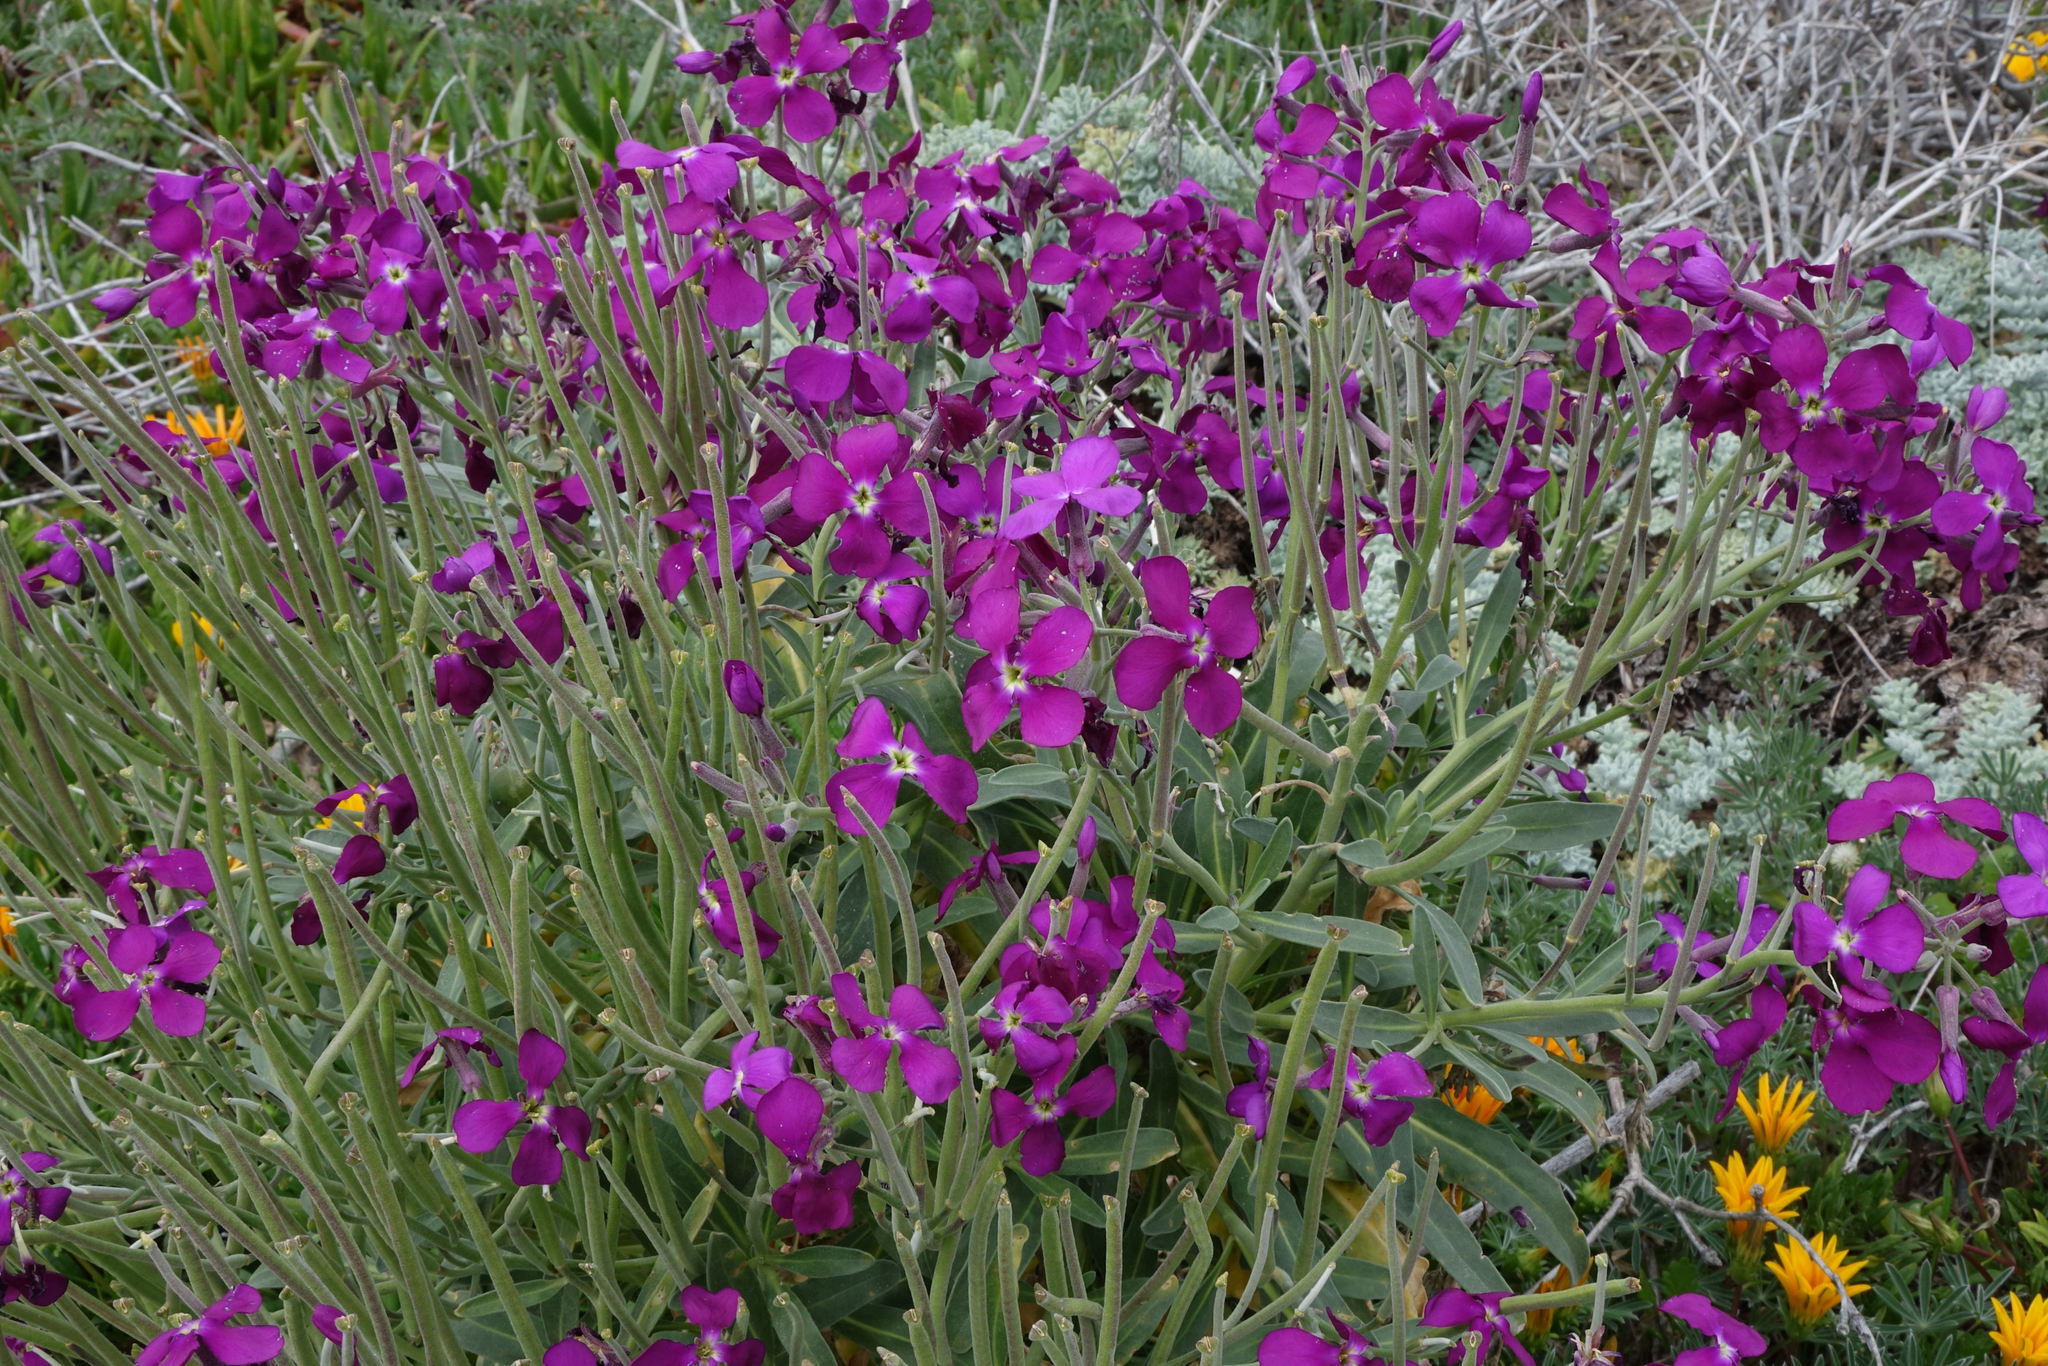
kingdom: Plantae
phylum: Tracheophyta
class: Magnoliopsida
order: Brassicales
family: Brassicaceae
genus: Matthiola
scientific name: Matthiola incana
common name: Hoary stock
